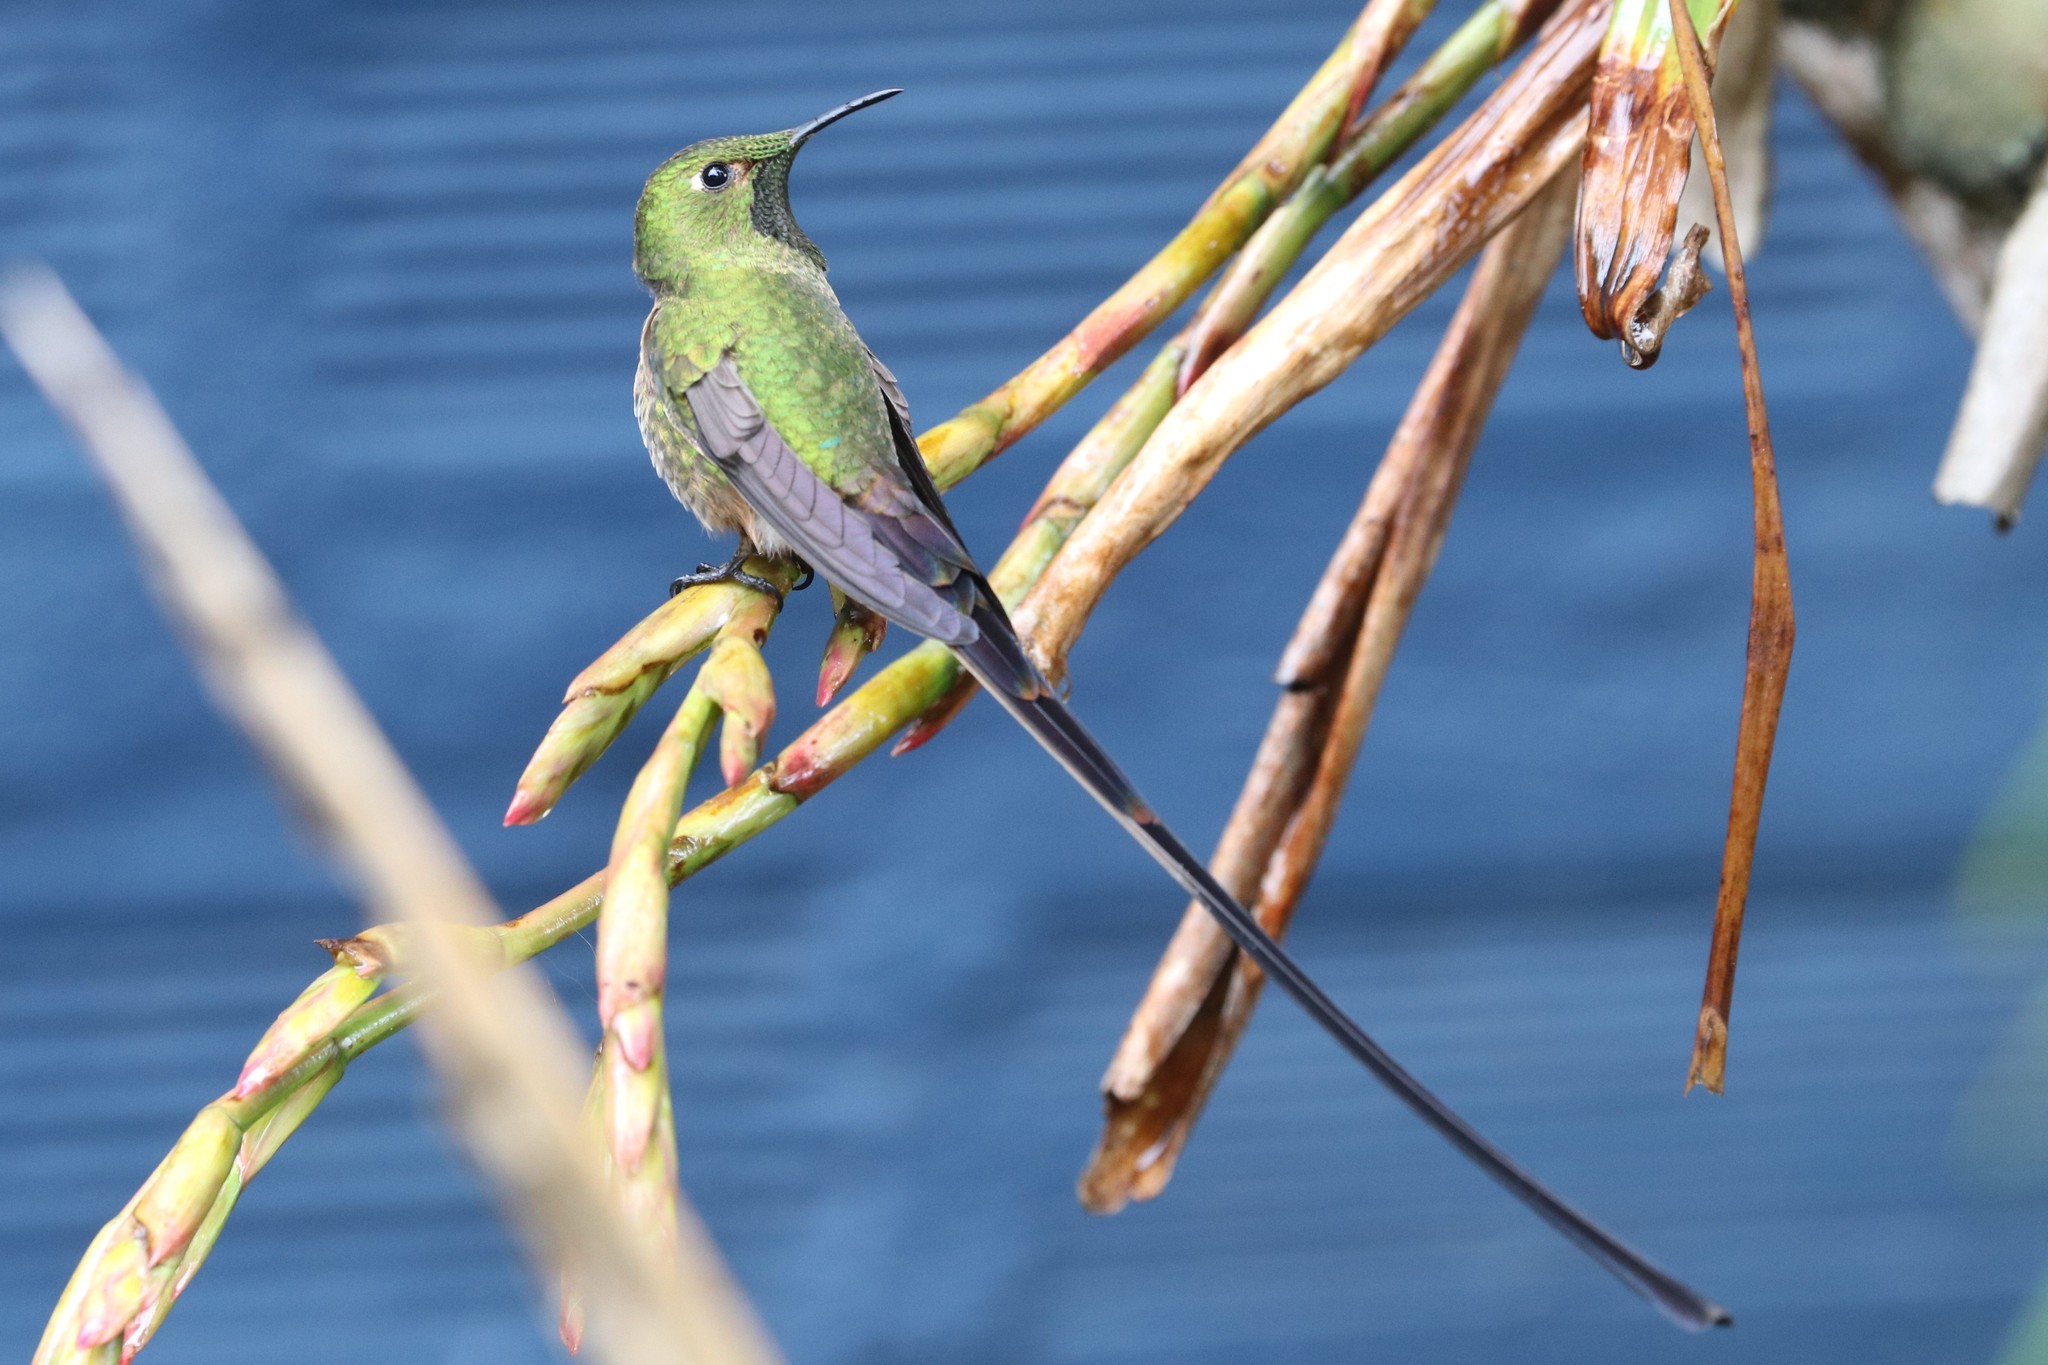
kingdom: Animalia
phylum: Chordata
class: Aves
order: Apodiformes
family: Trochilidae
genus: Lesbia
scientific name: Lesbia victoriae
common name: Black-tailed trainbearer
